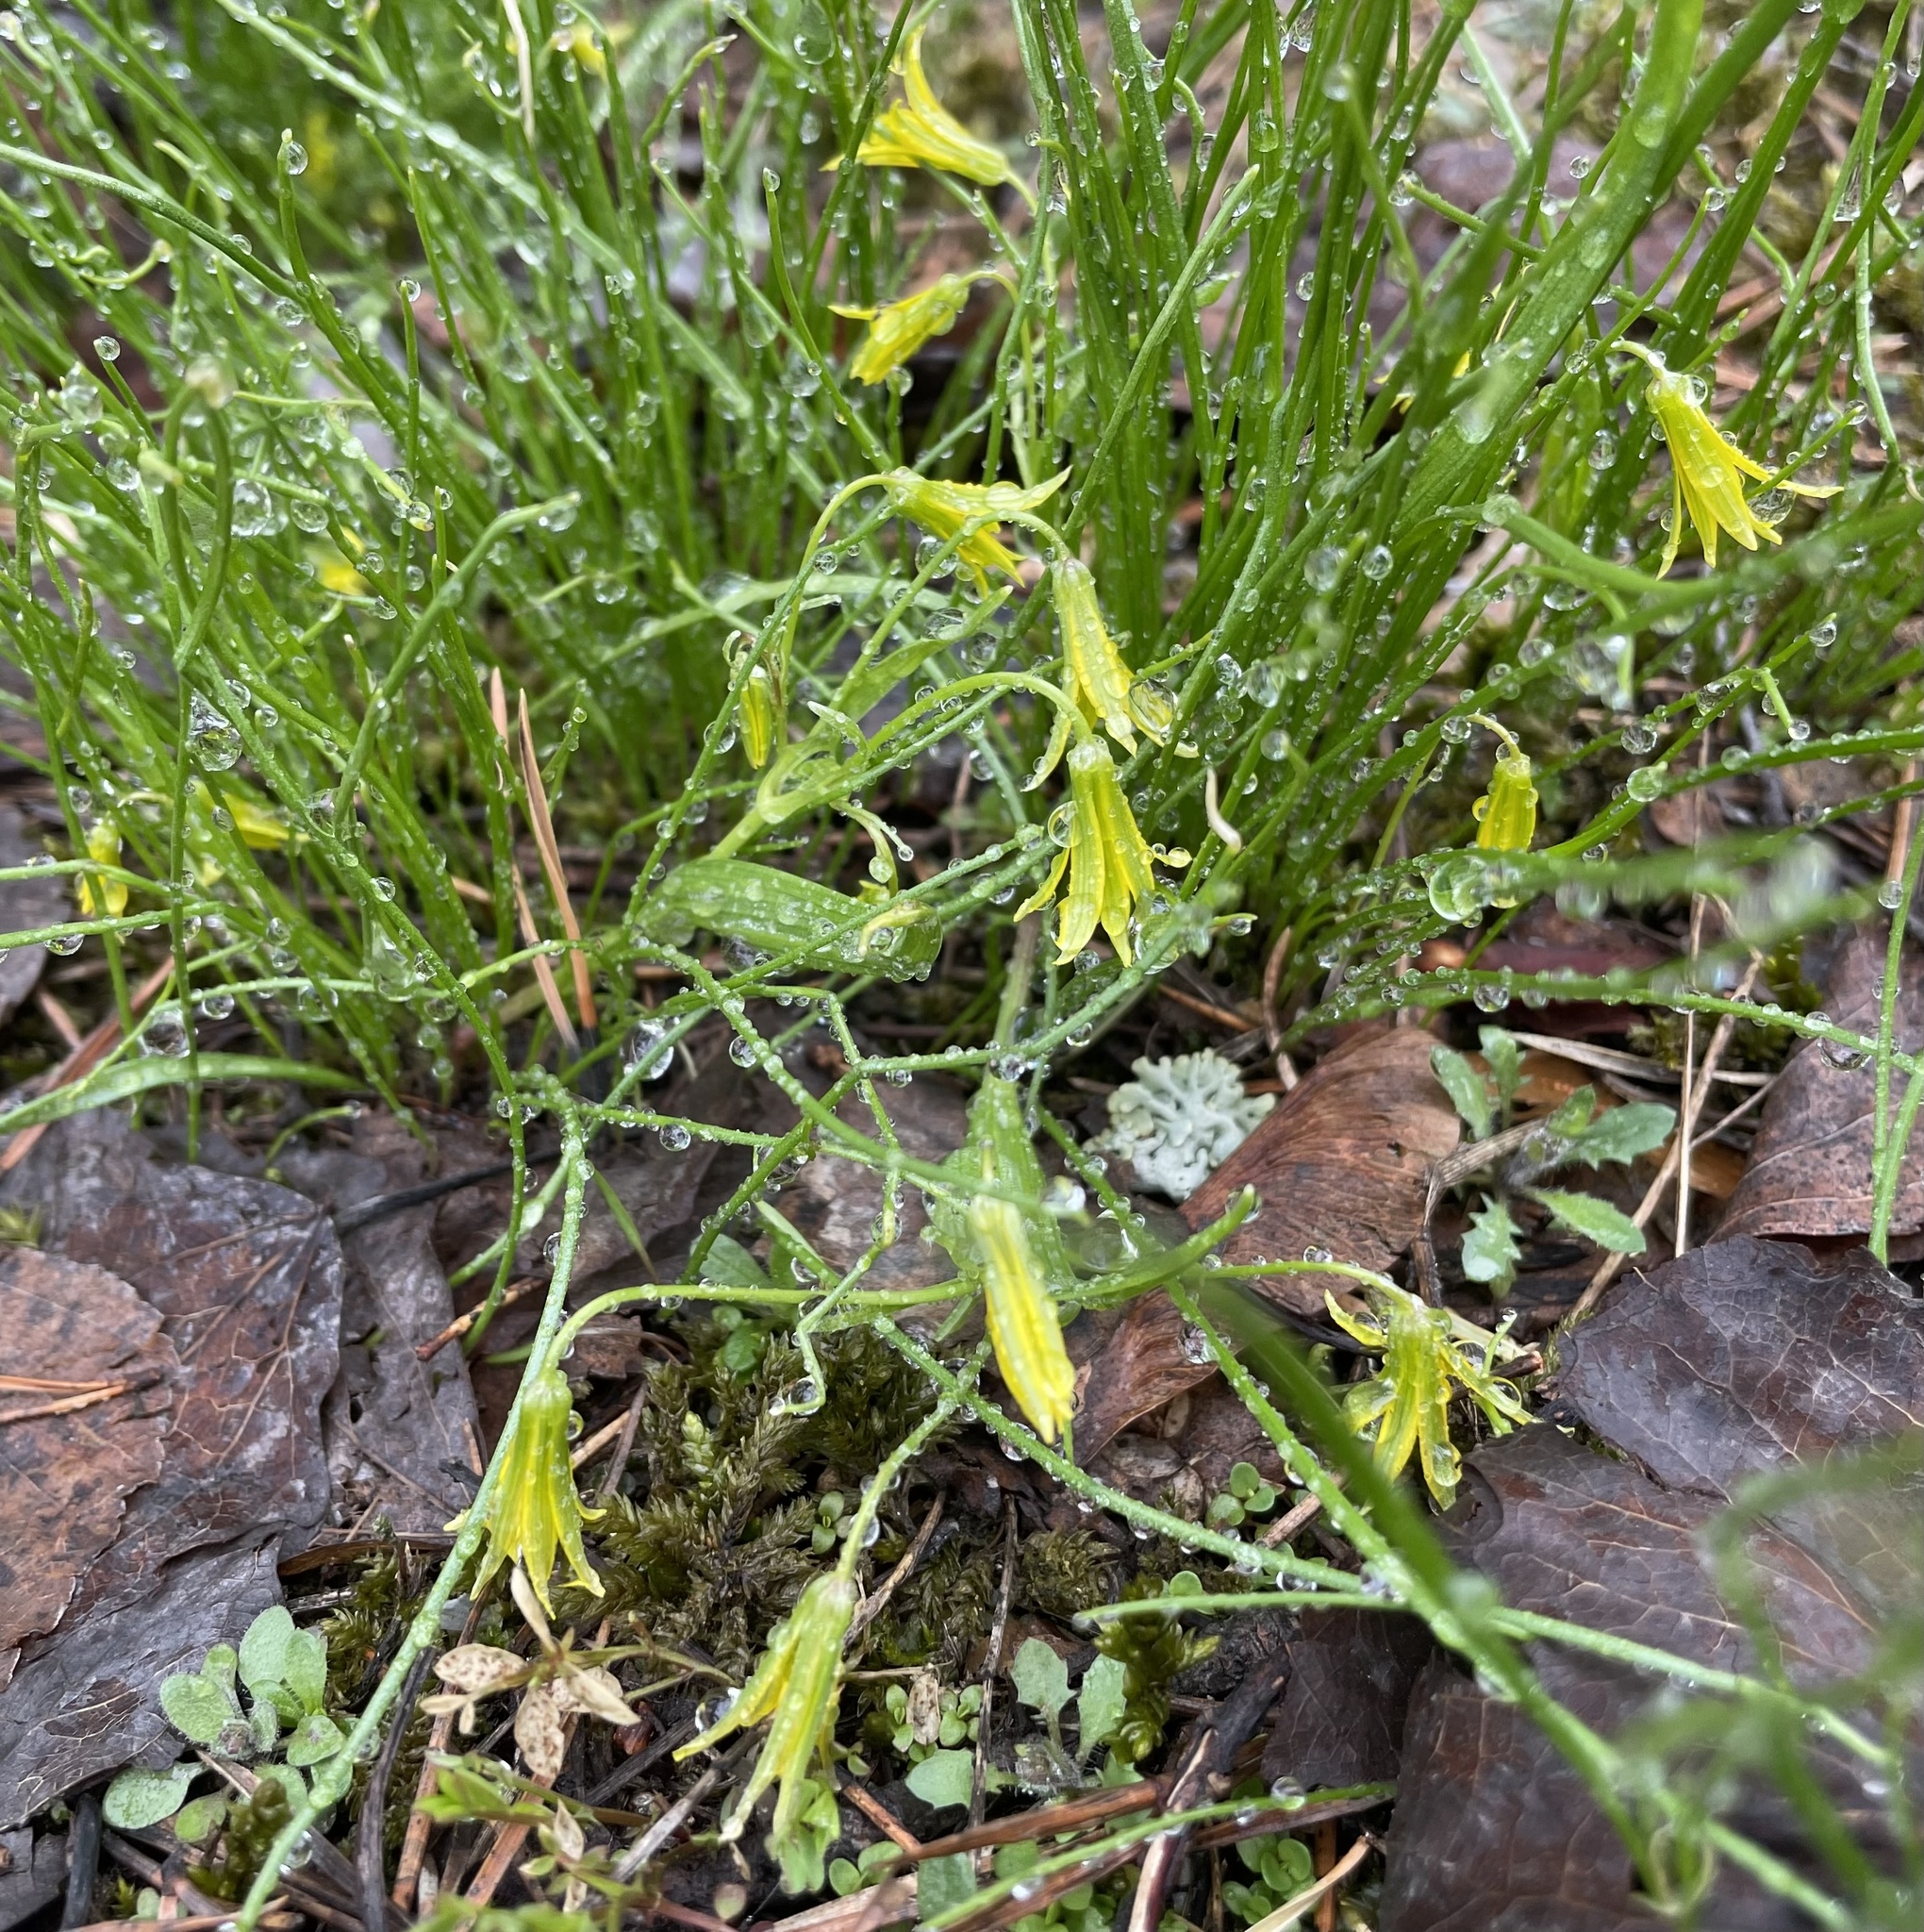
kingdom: Plantae
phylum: Tracheophyta
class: Liliopsida
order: Liliales
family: Liliaceae
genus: Gagea
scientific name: Gagea minima
